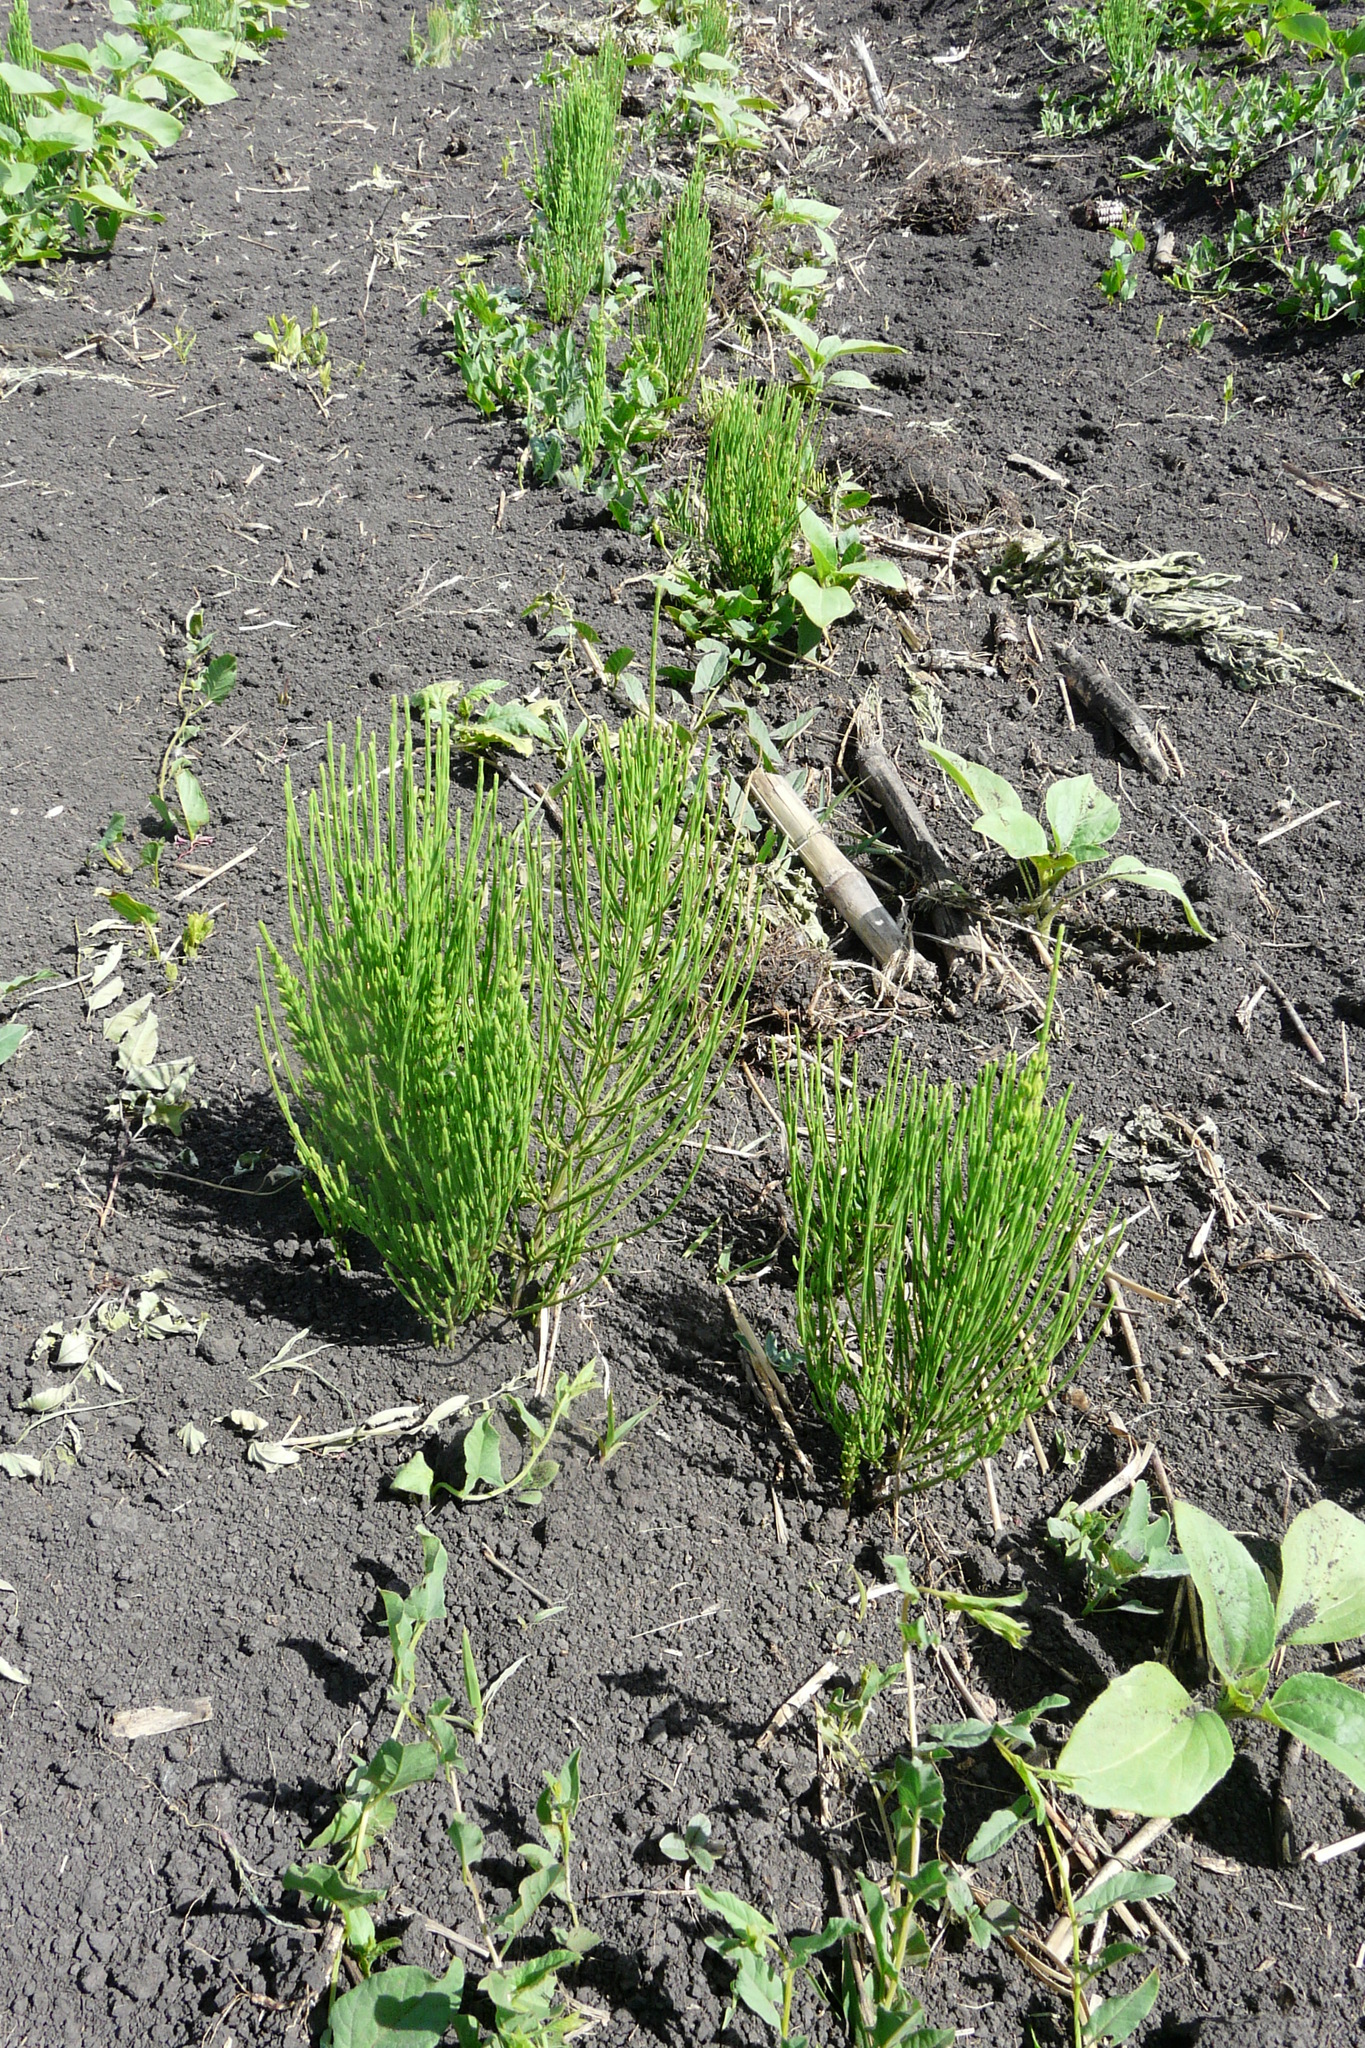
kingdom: Plantae
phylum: Tracheophyta
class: Polypodiopsida
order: Equisetales
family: Equisetaceae
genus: Equisetum
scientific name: Equisetum arvense
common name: Field horsetail
